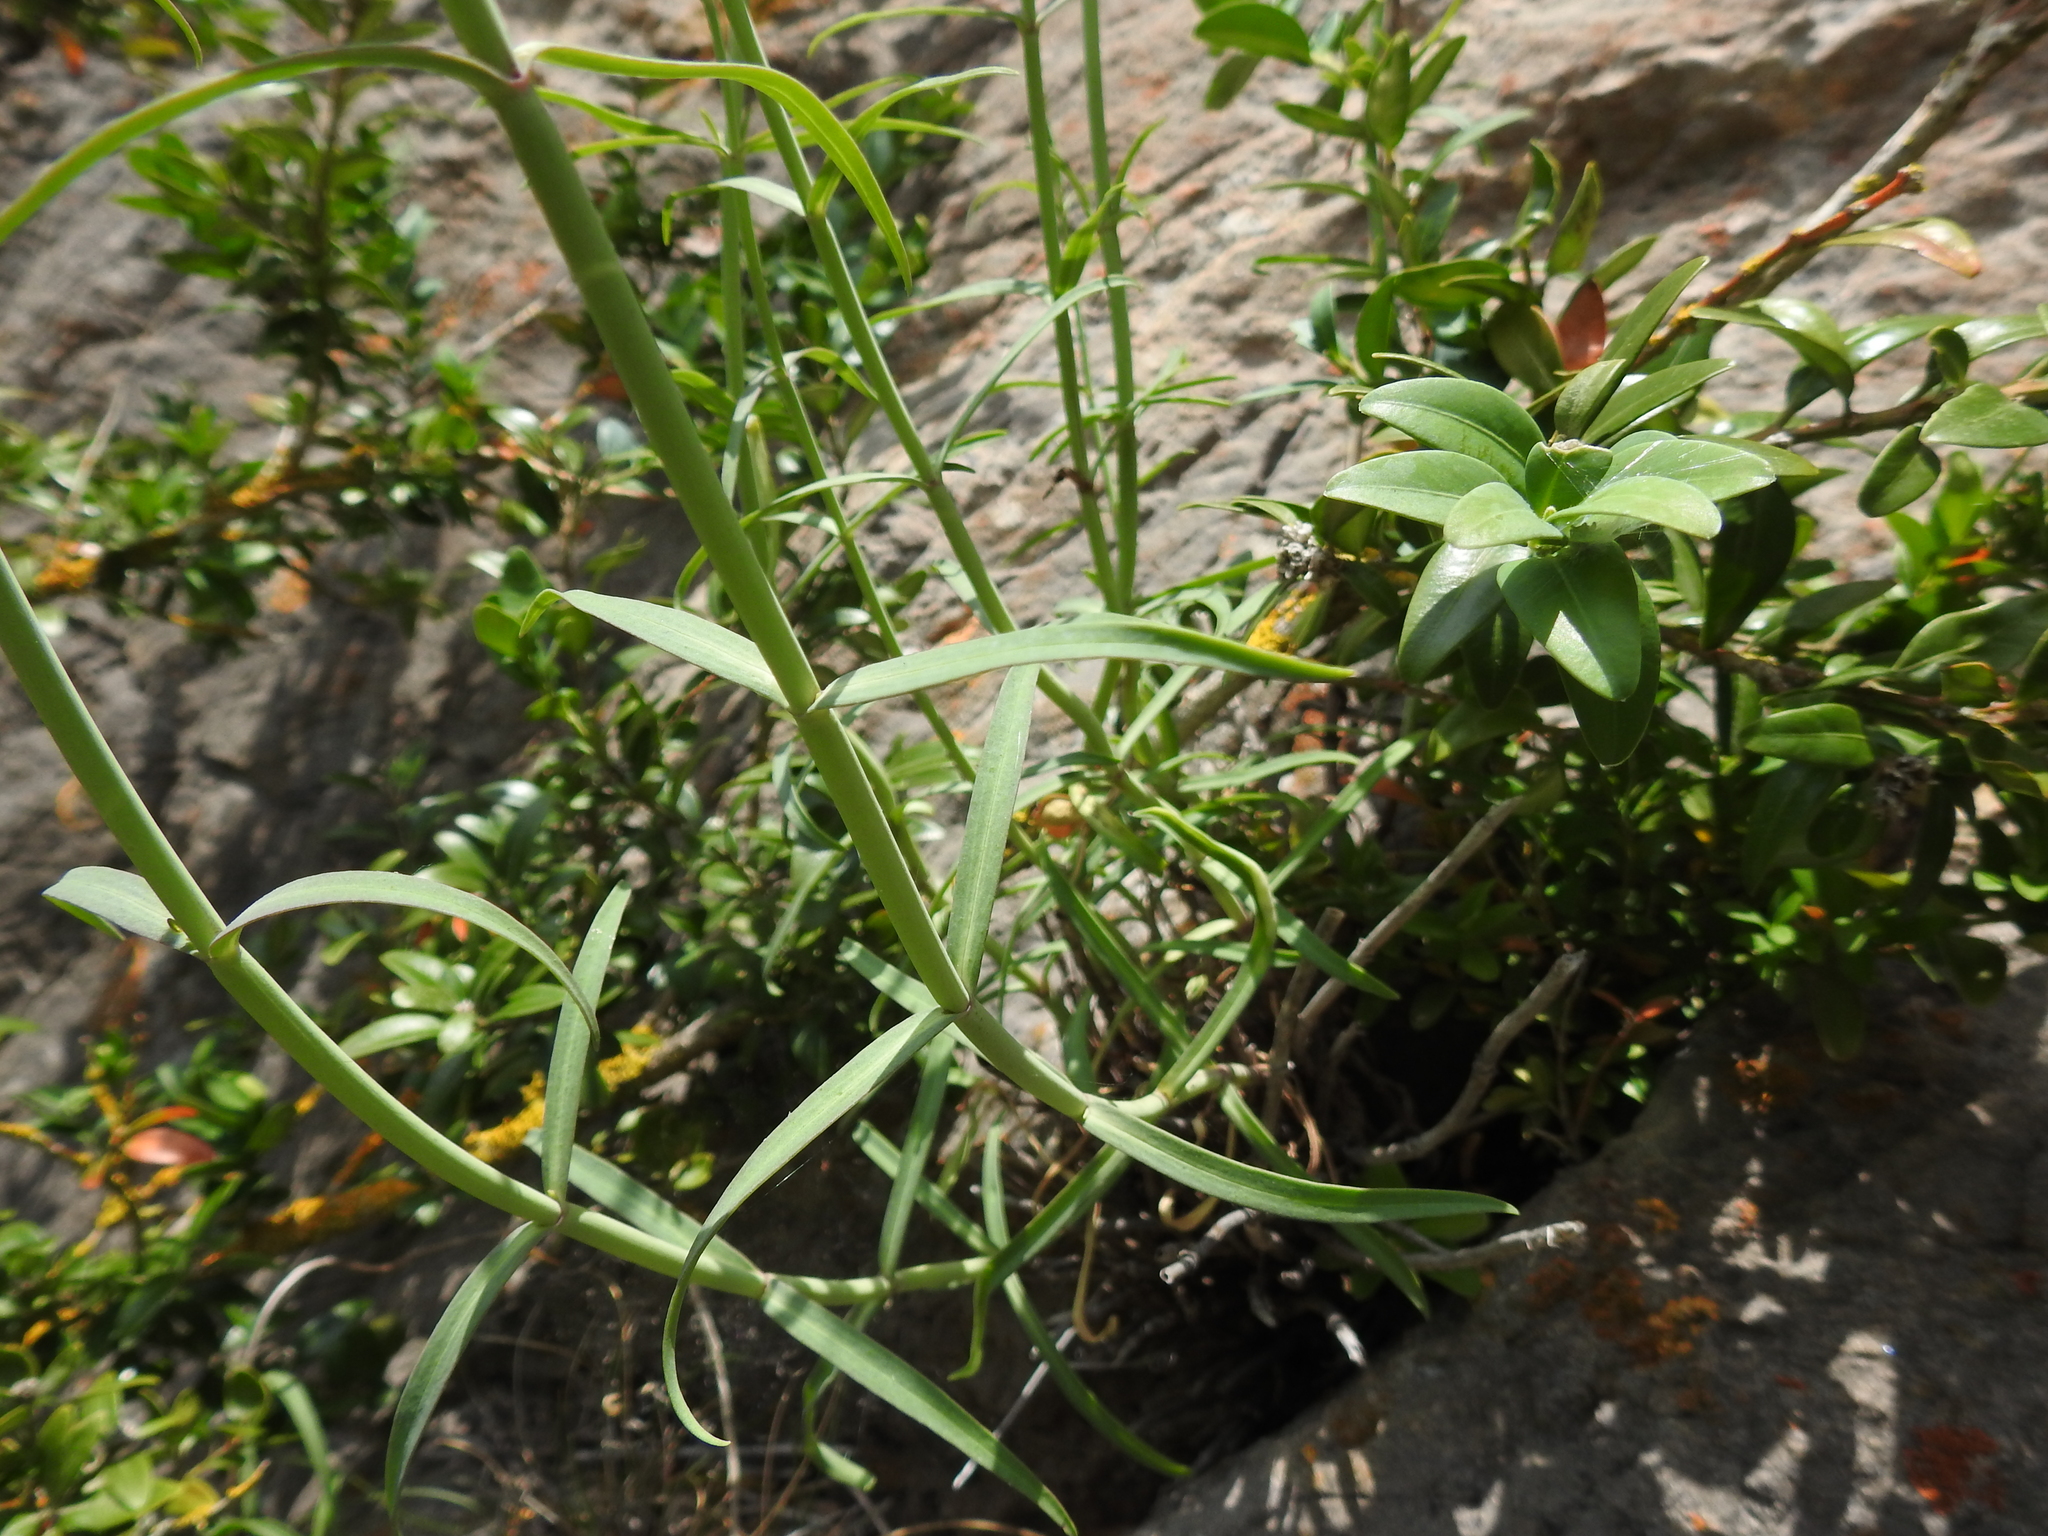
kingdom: Plantae
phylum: Tracheophyta
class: Magnoliopsida
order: Dipsacales
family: Caprifoliaceae
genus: Centranthus
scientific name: Centranthus lecoqii
